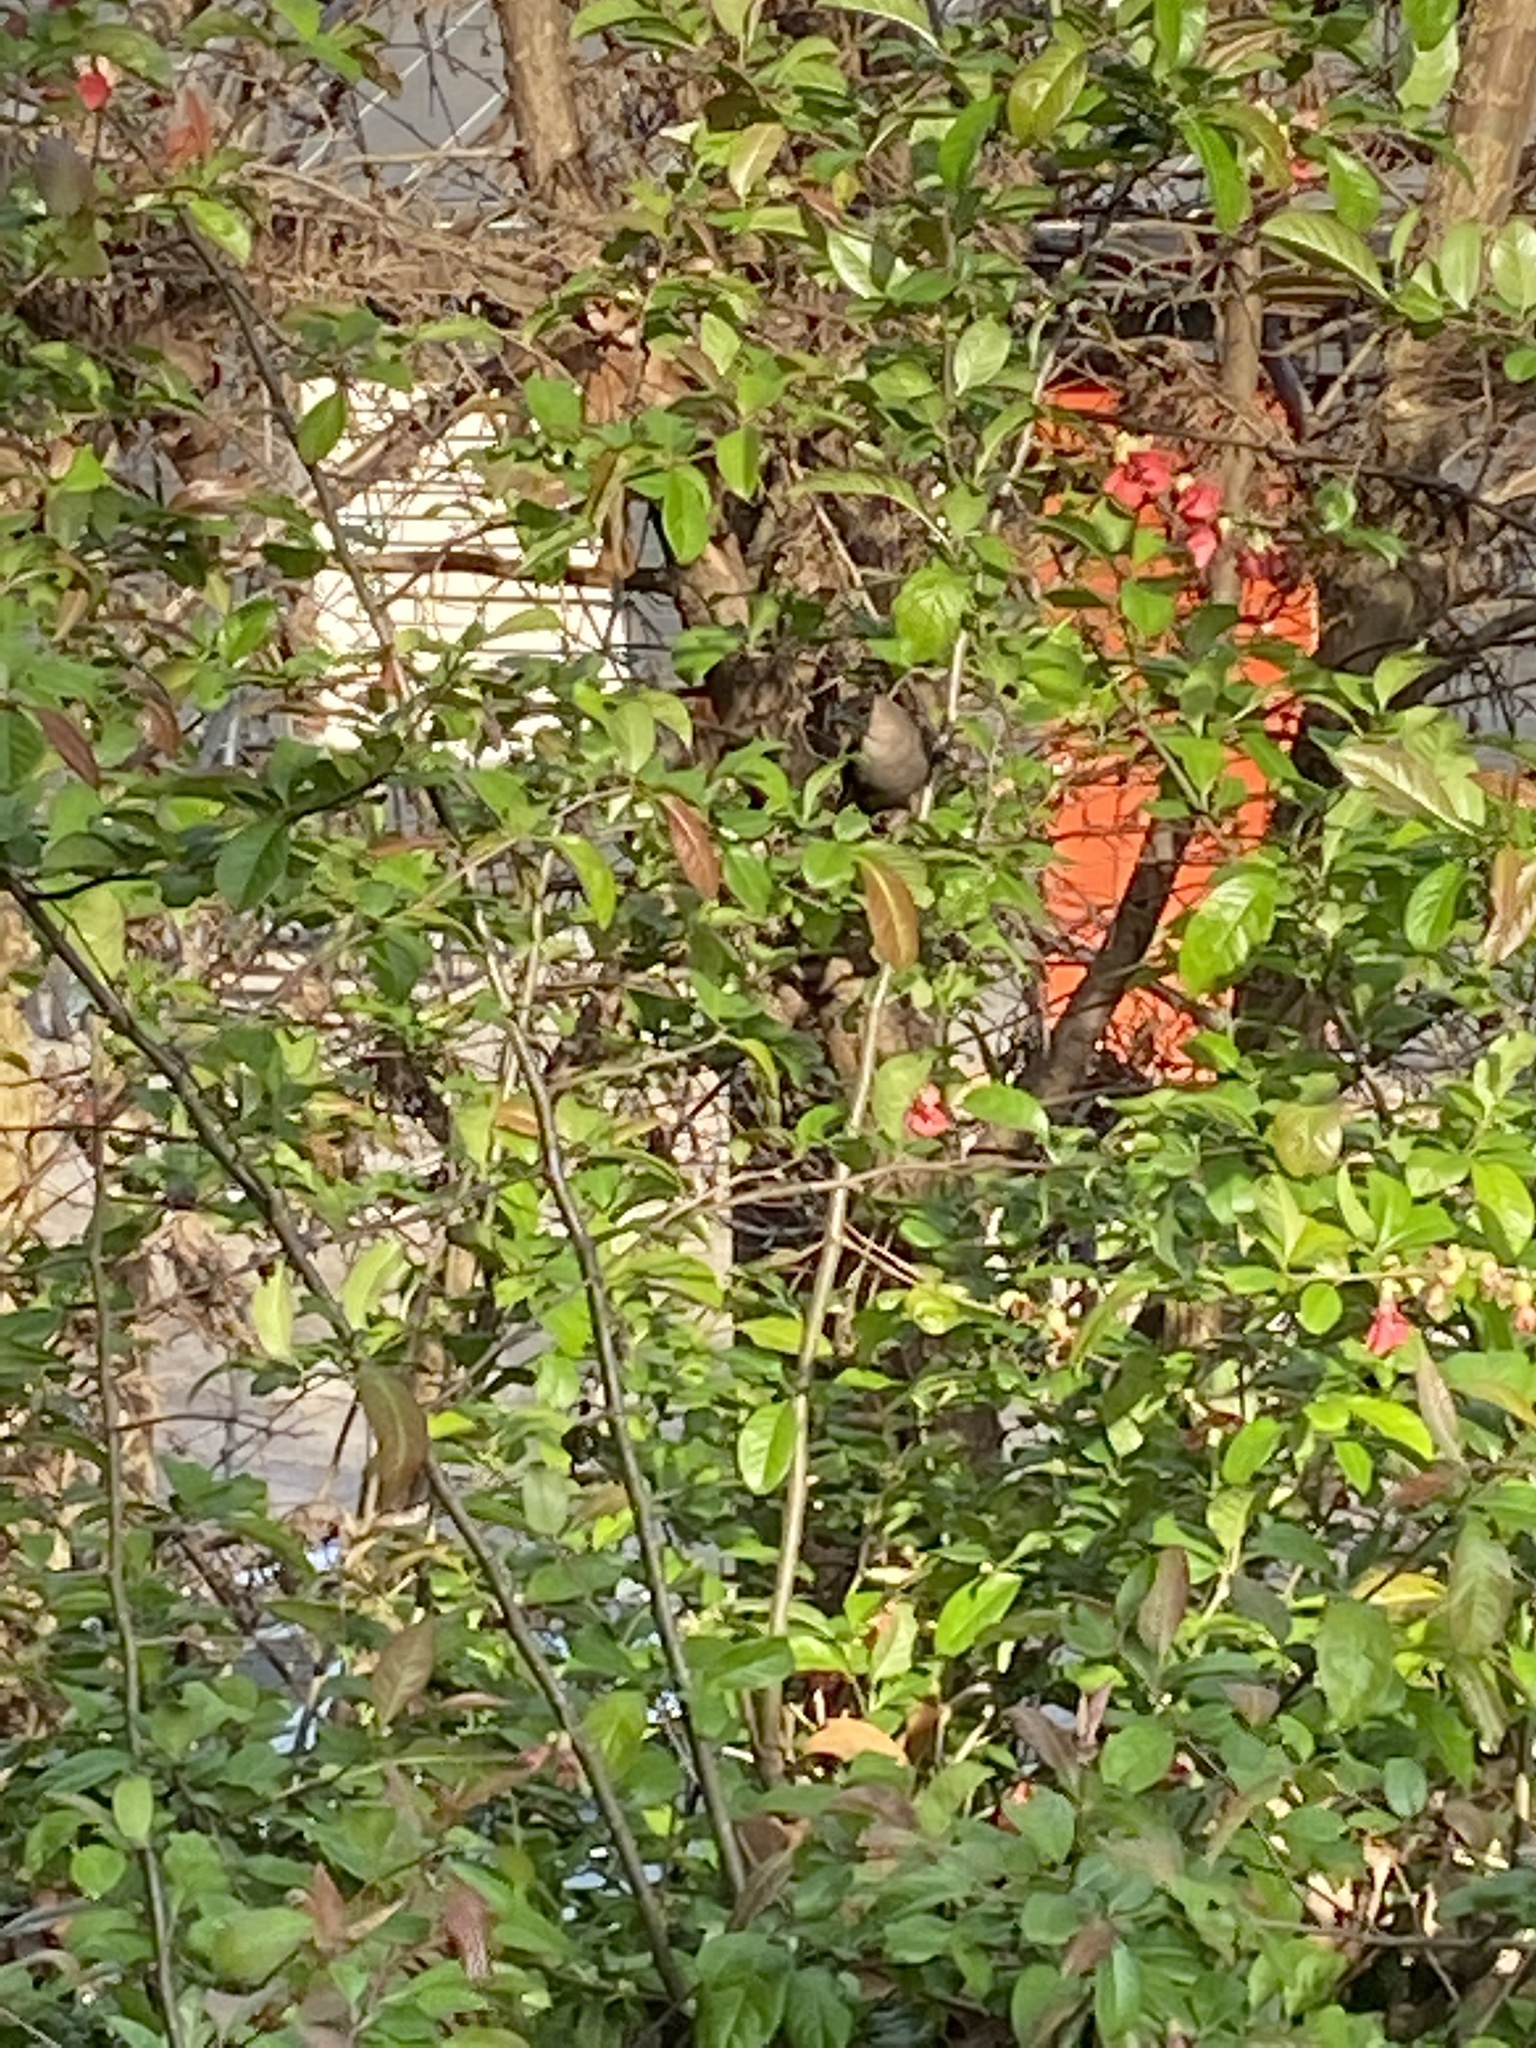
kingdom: Animalia
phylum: Chordata
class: Aves
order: Passeriformes
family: Icteridae
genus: Molothrus
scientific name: Molothrus ater
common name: Brown-headed cowbird
